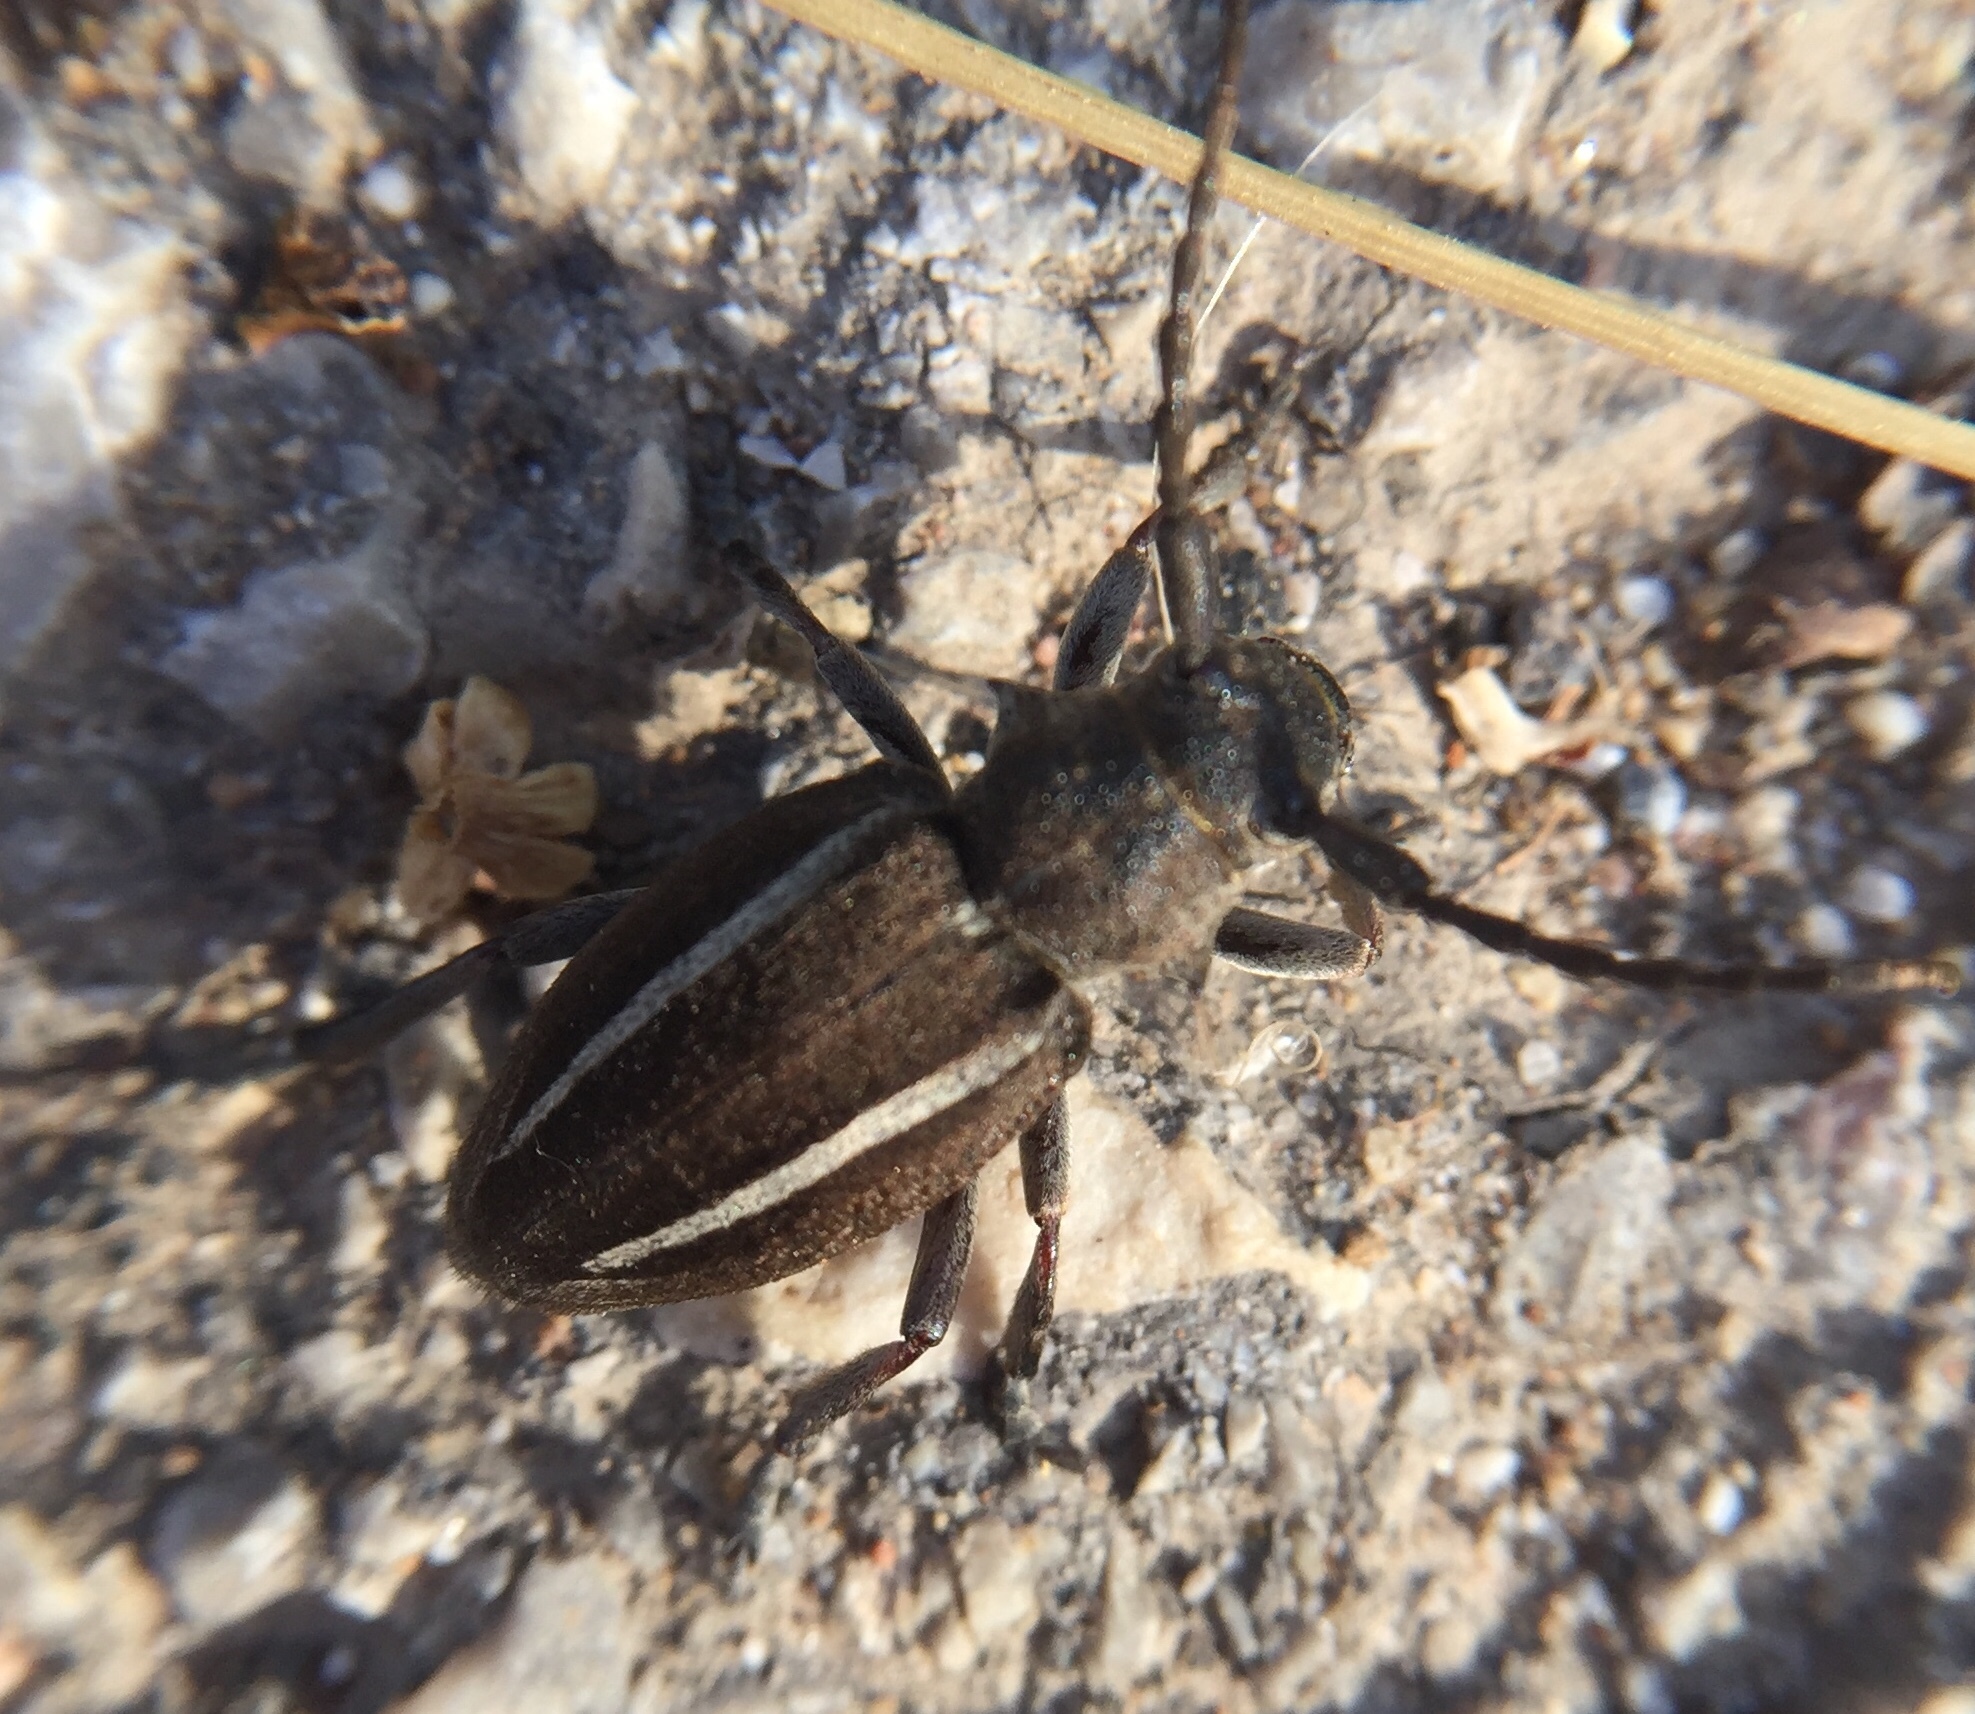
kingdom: Animalia
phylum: Arthropoda
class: Insecta
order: Coleoptera
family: Cerambycidae
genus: Neodorcadion
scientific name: Neodorcadion bilineatum
